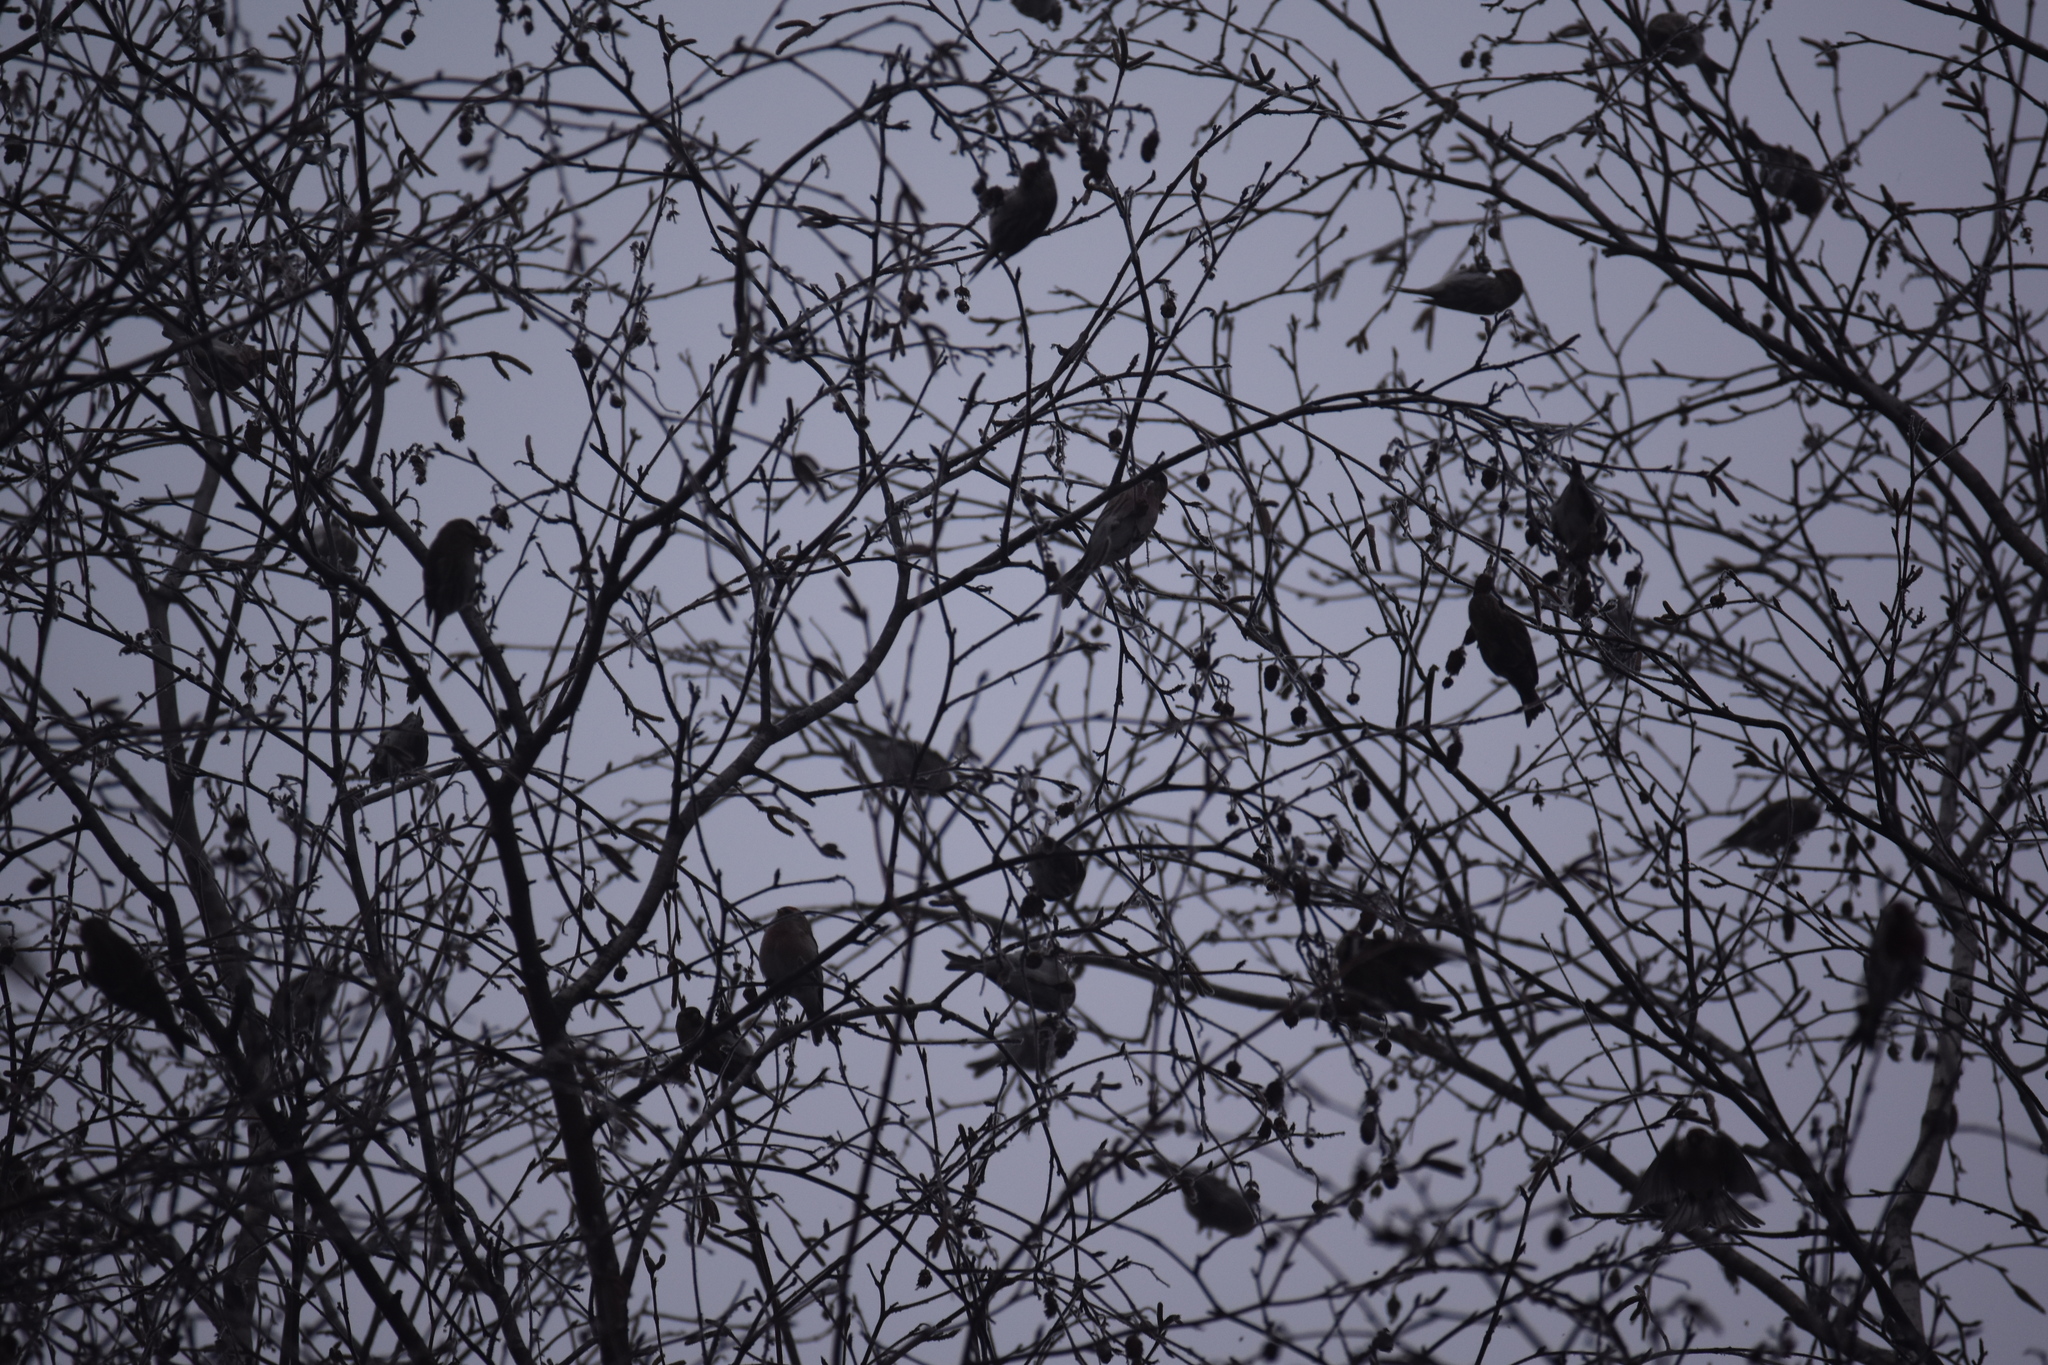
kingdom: Animalia
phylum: Chordata
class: Aves
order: Passeriformes
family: Fringillidae
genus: Acanthis
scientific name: Acanthis flammea
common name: Common redpoll
